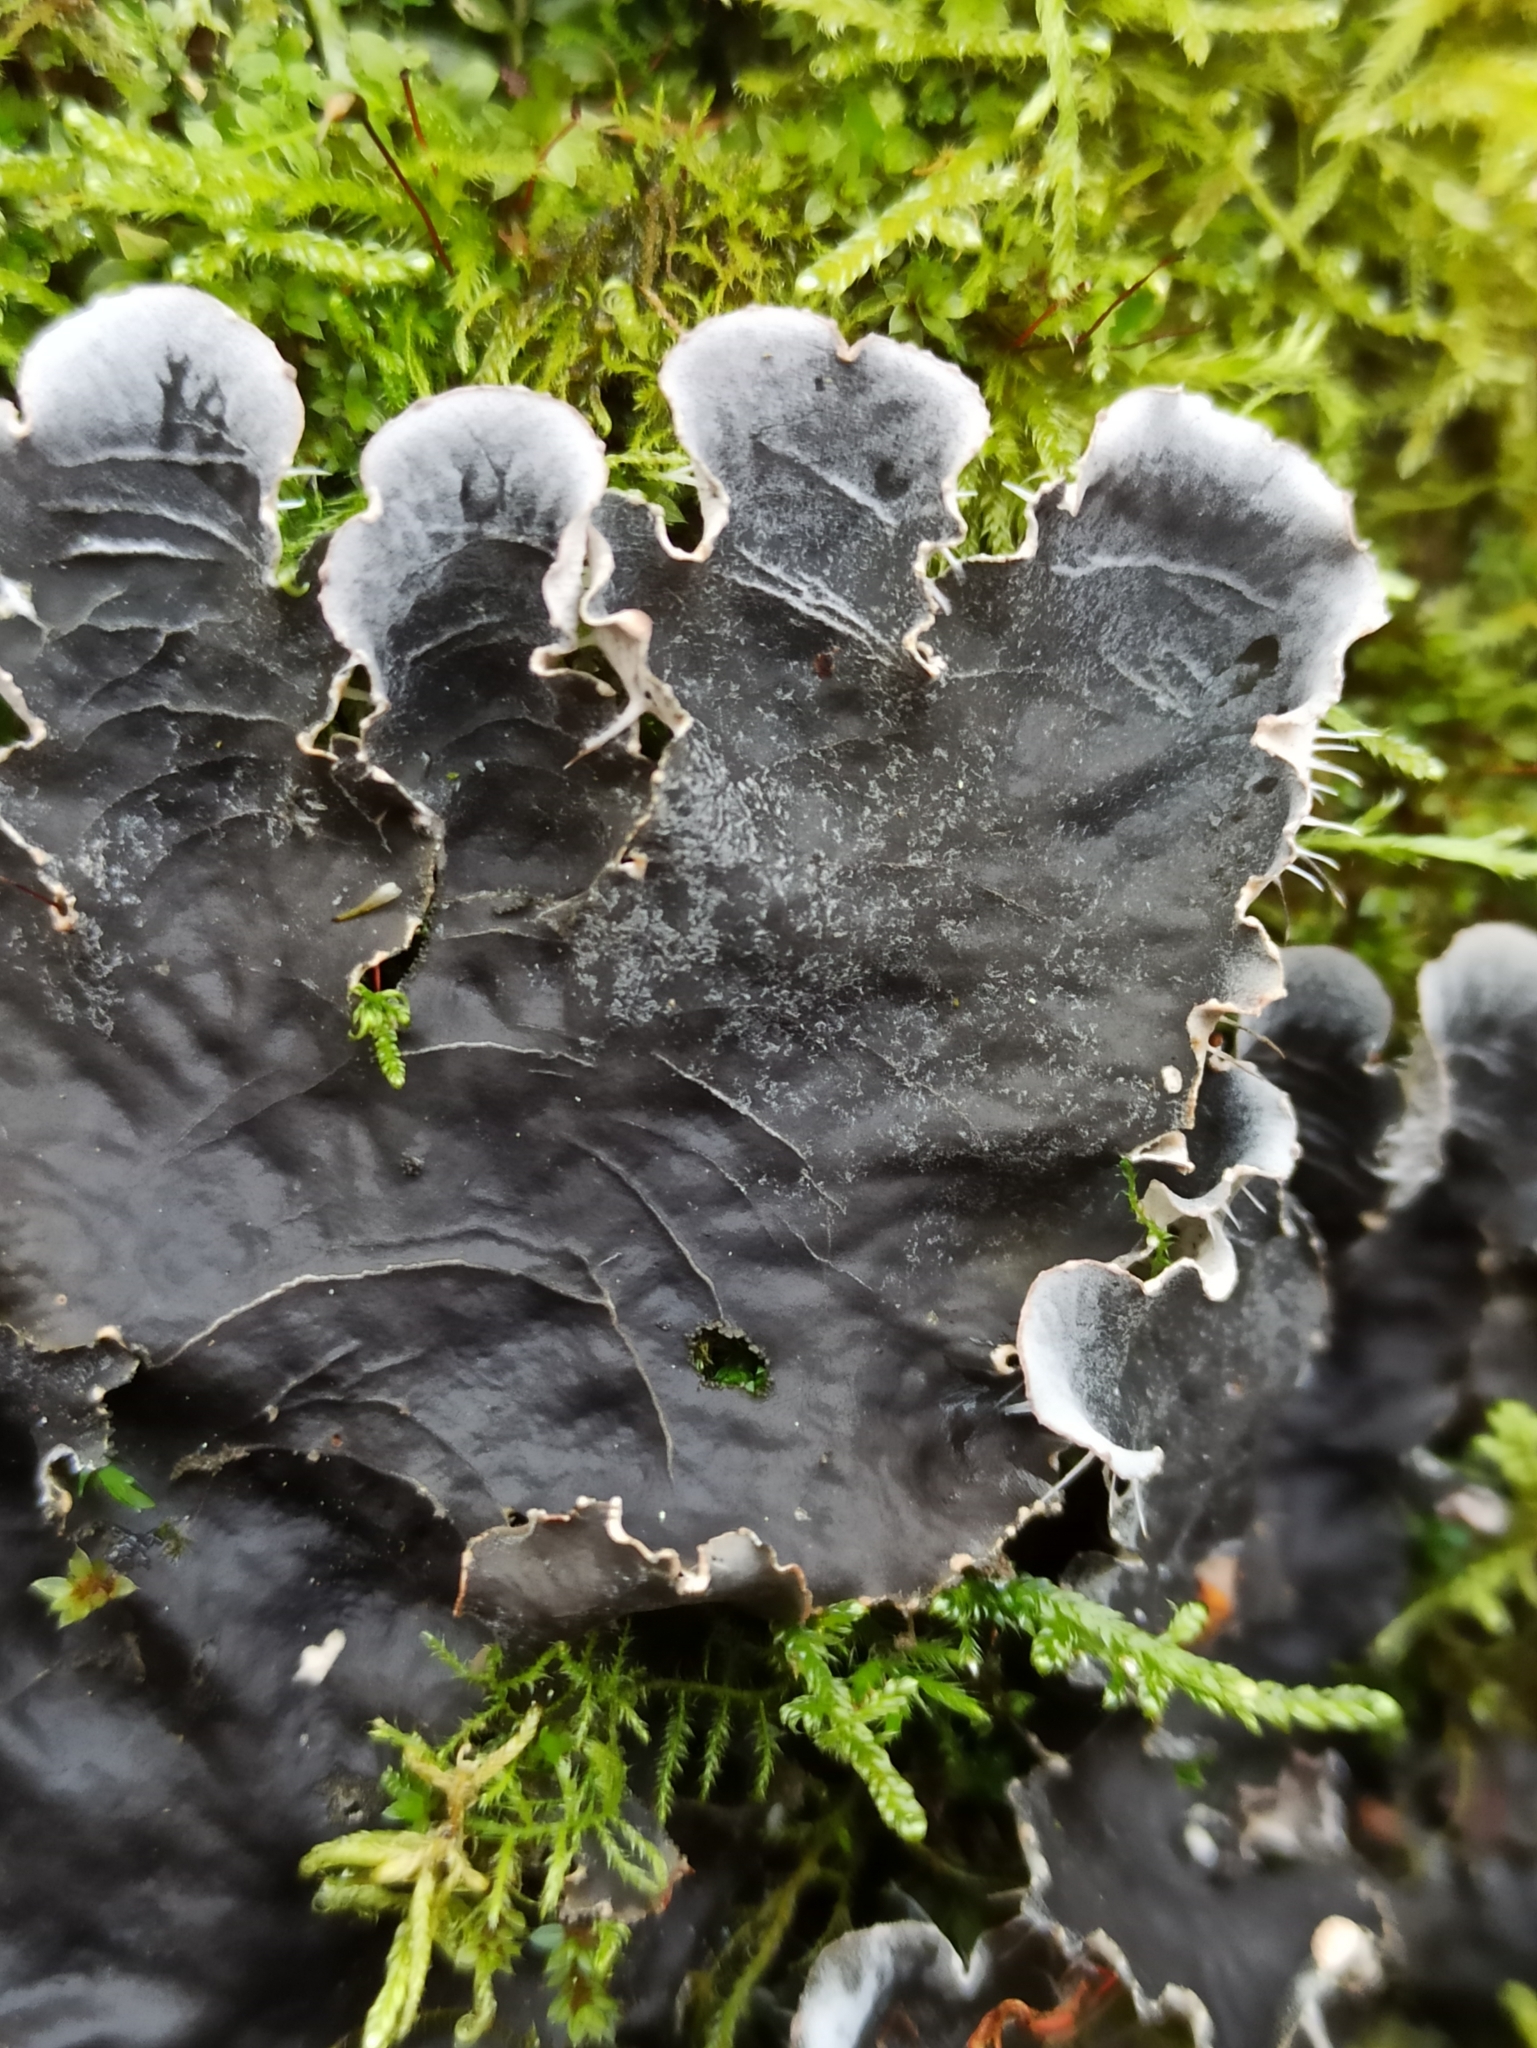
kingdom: Fungi
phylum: Ascomycota
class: Lecanoromycetes
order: Peltigerales
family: Peltigeraceae
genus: Peltigera
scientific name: Peltigera praetextata
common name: Scaly dog-lichen
